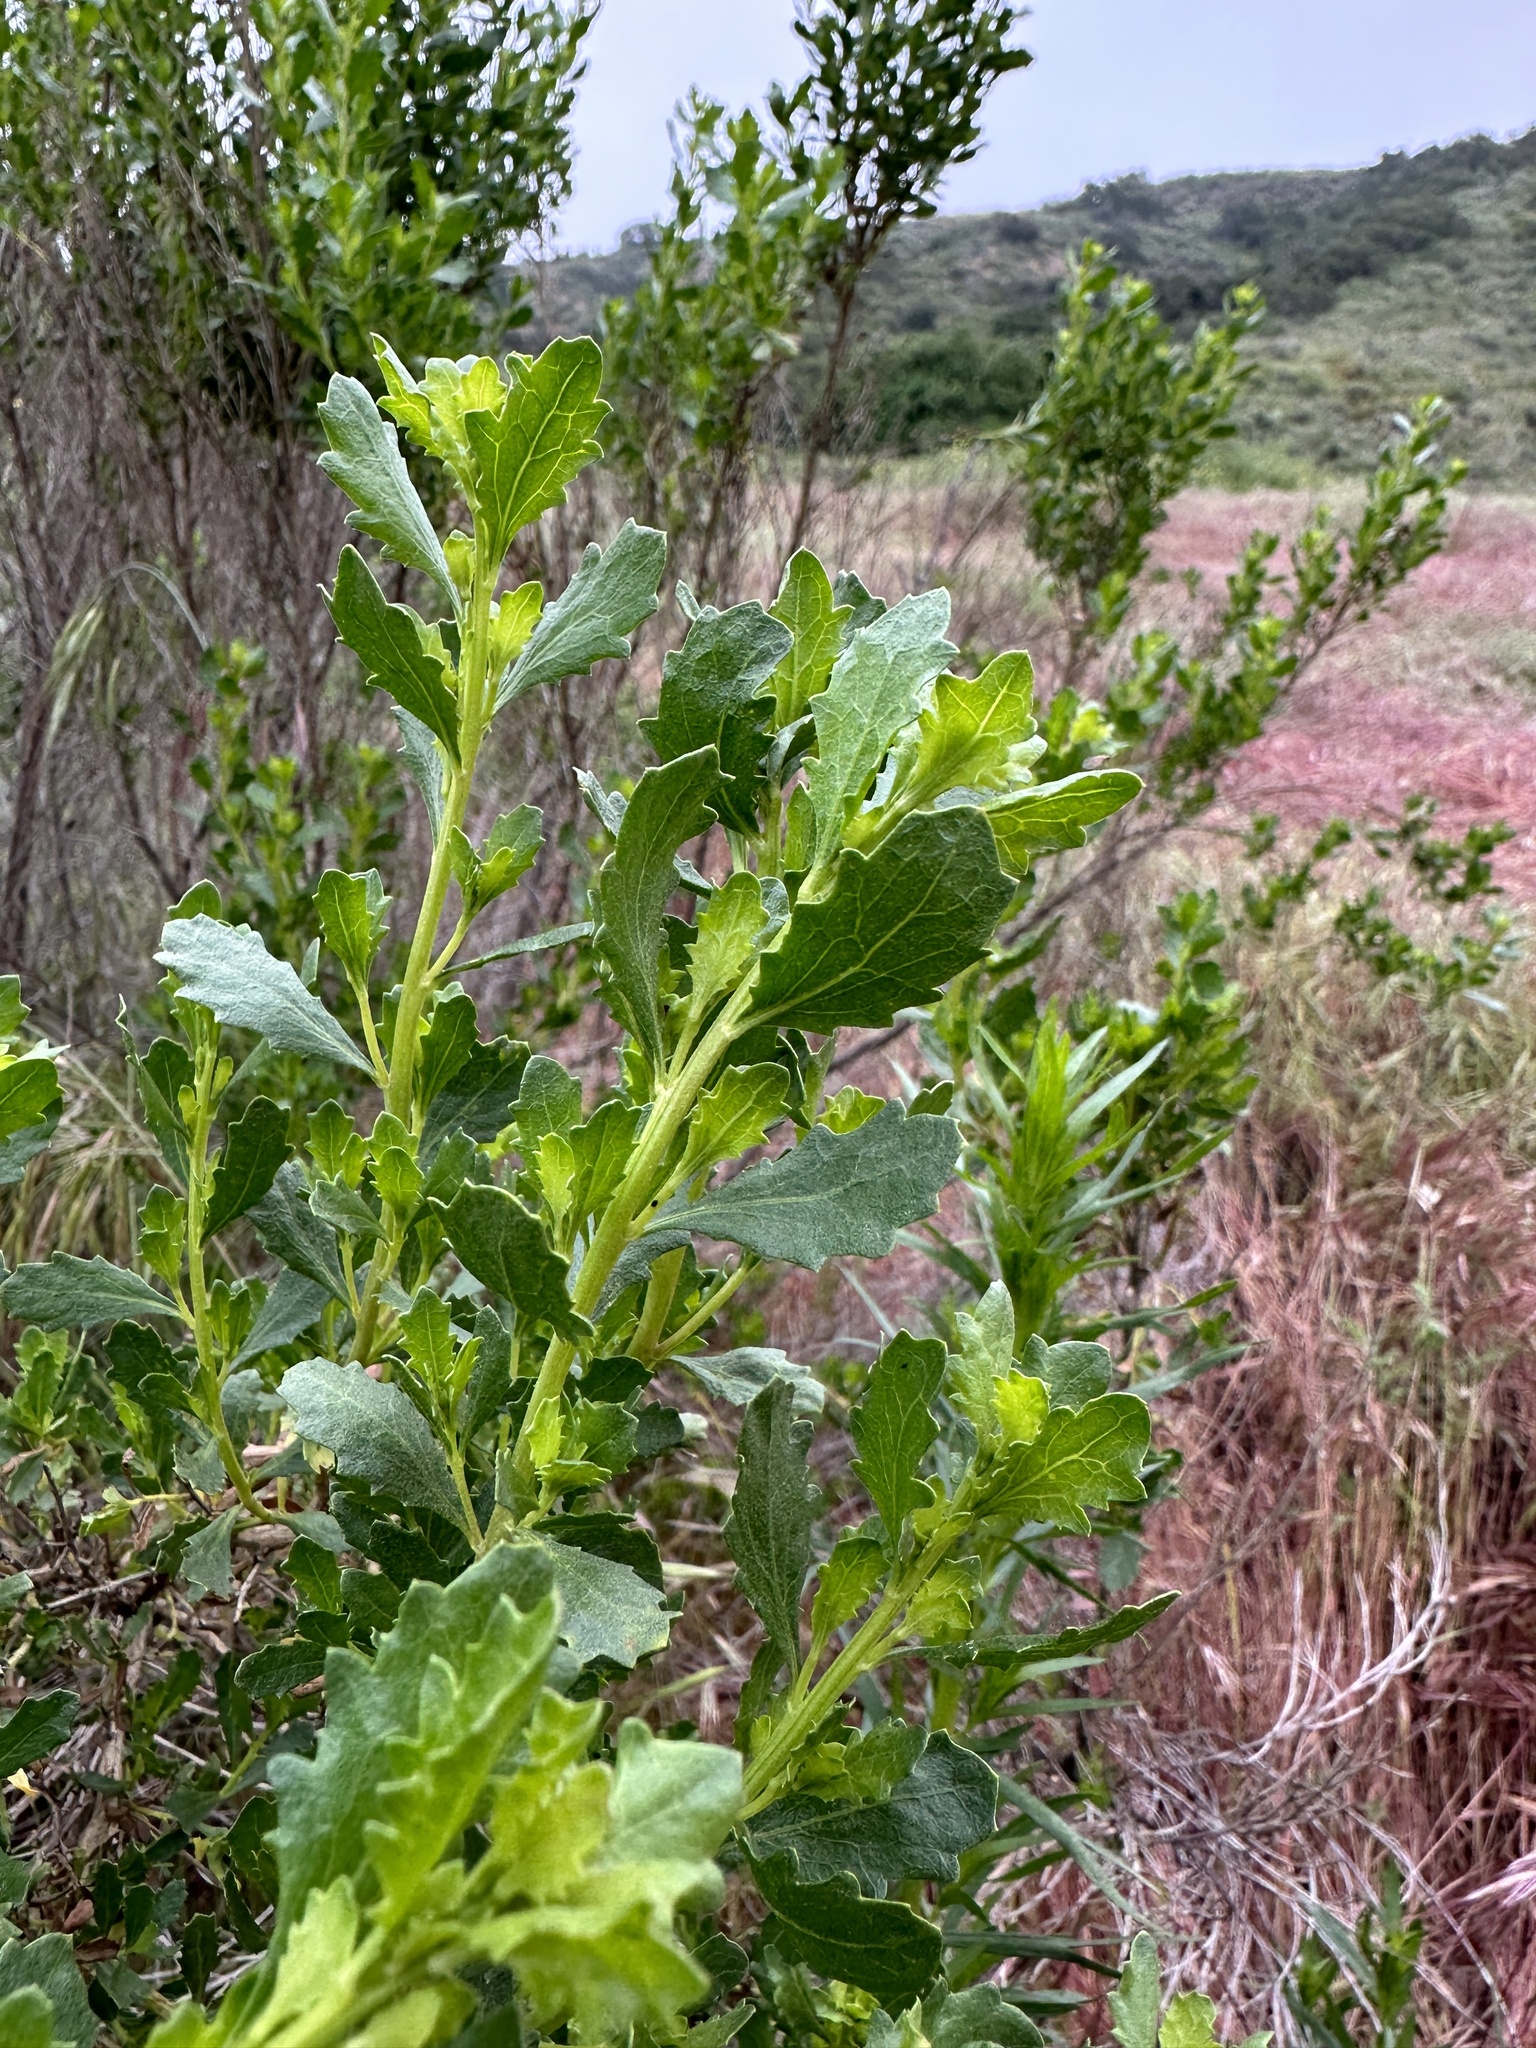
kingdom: Plantae
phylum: Tracheophyta
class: Magnoliopsida
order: Asterales
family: Asteraceae
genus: Baccharis
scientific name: Baccharis pilularis
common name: Coyotebrush
